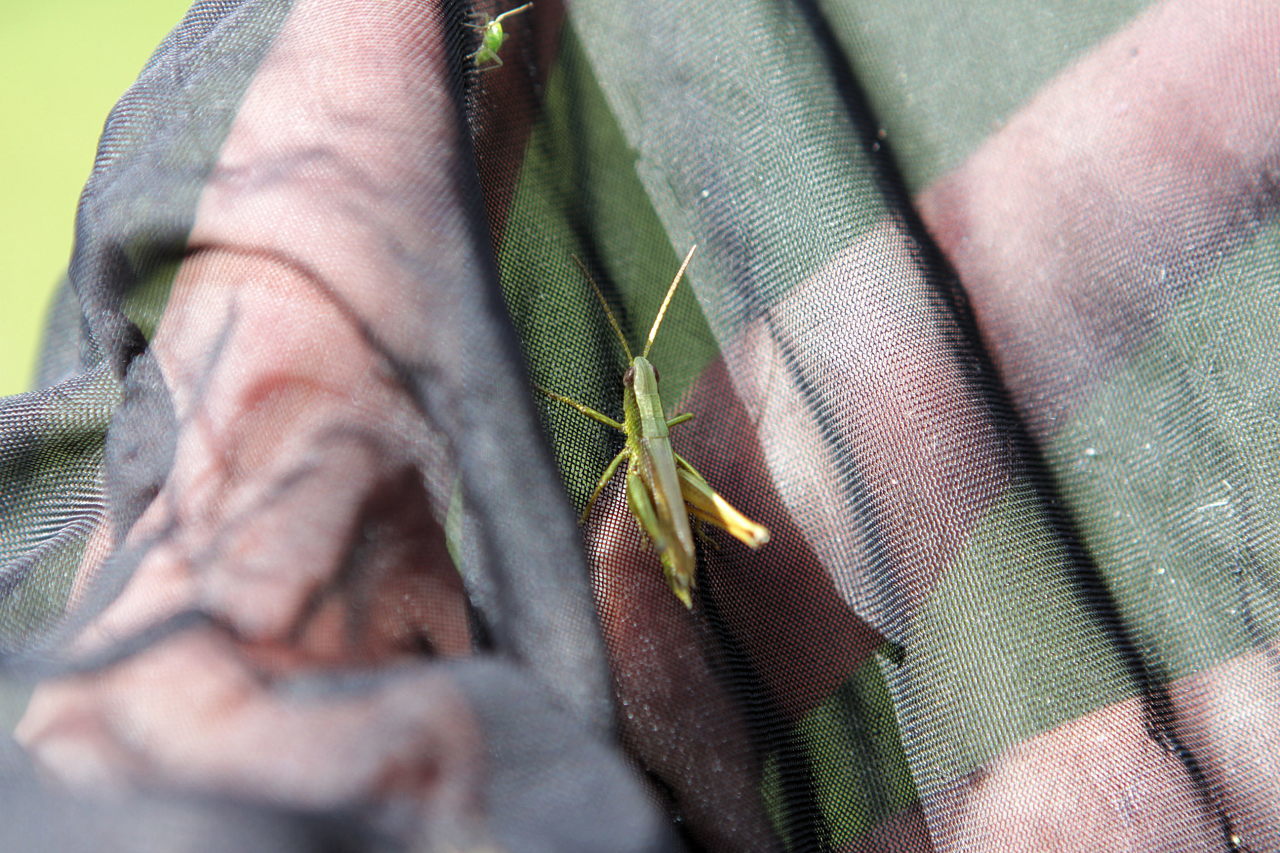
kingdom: Animalia
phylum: Arthropoda
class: Insecta
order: Orthoptera
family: Acrididae
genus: Chrysochraon
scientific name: Chrysochraon dispar
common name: Large gold grasshopper
